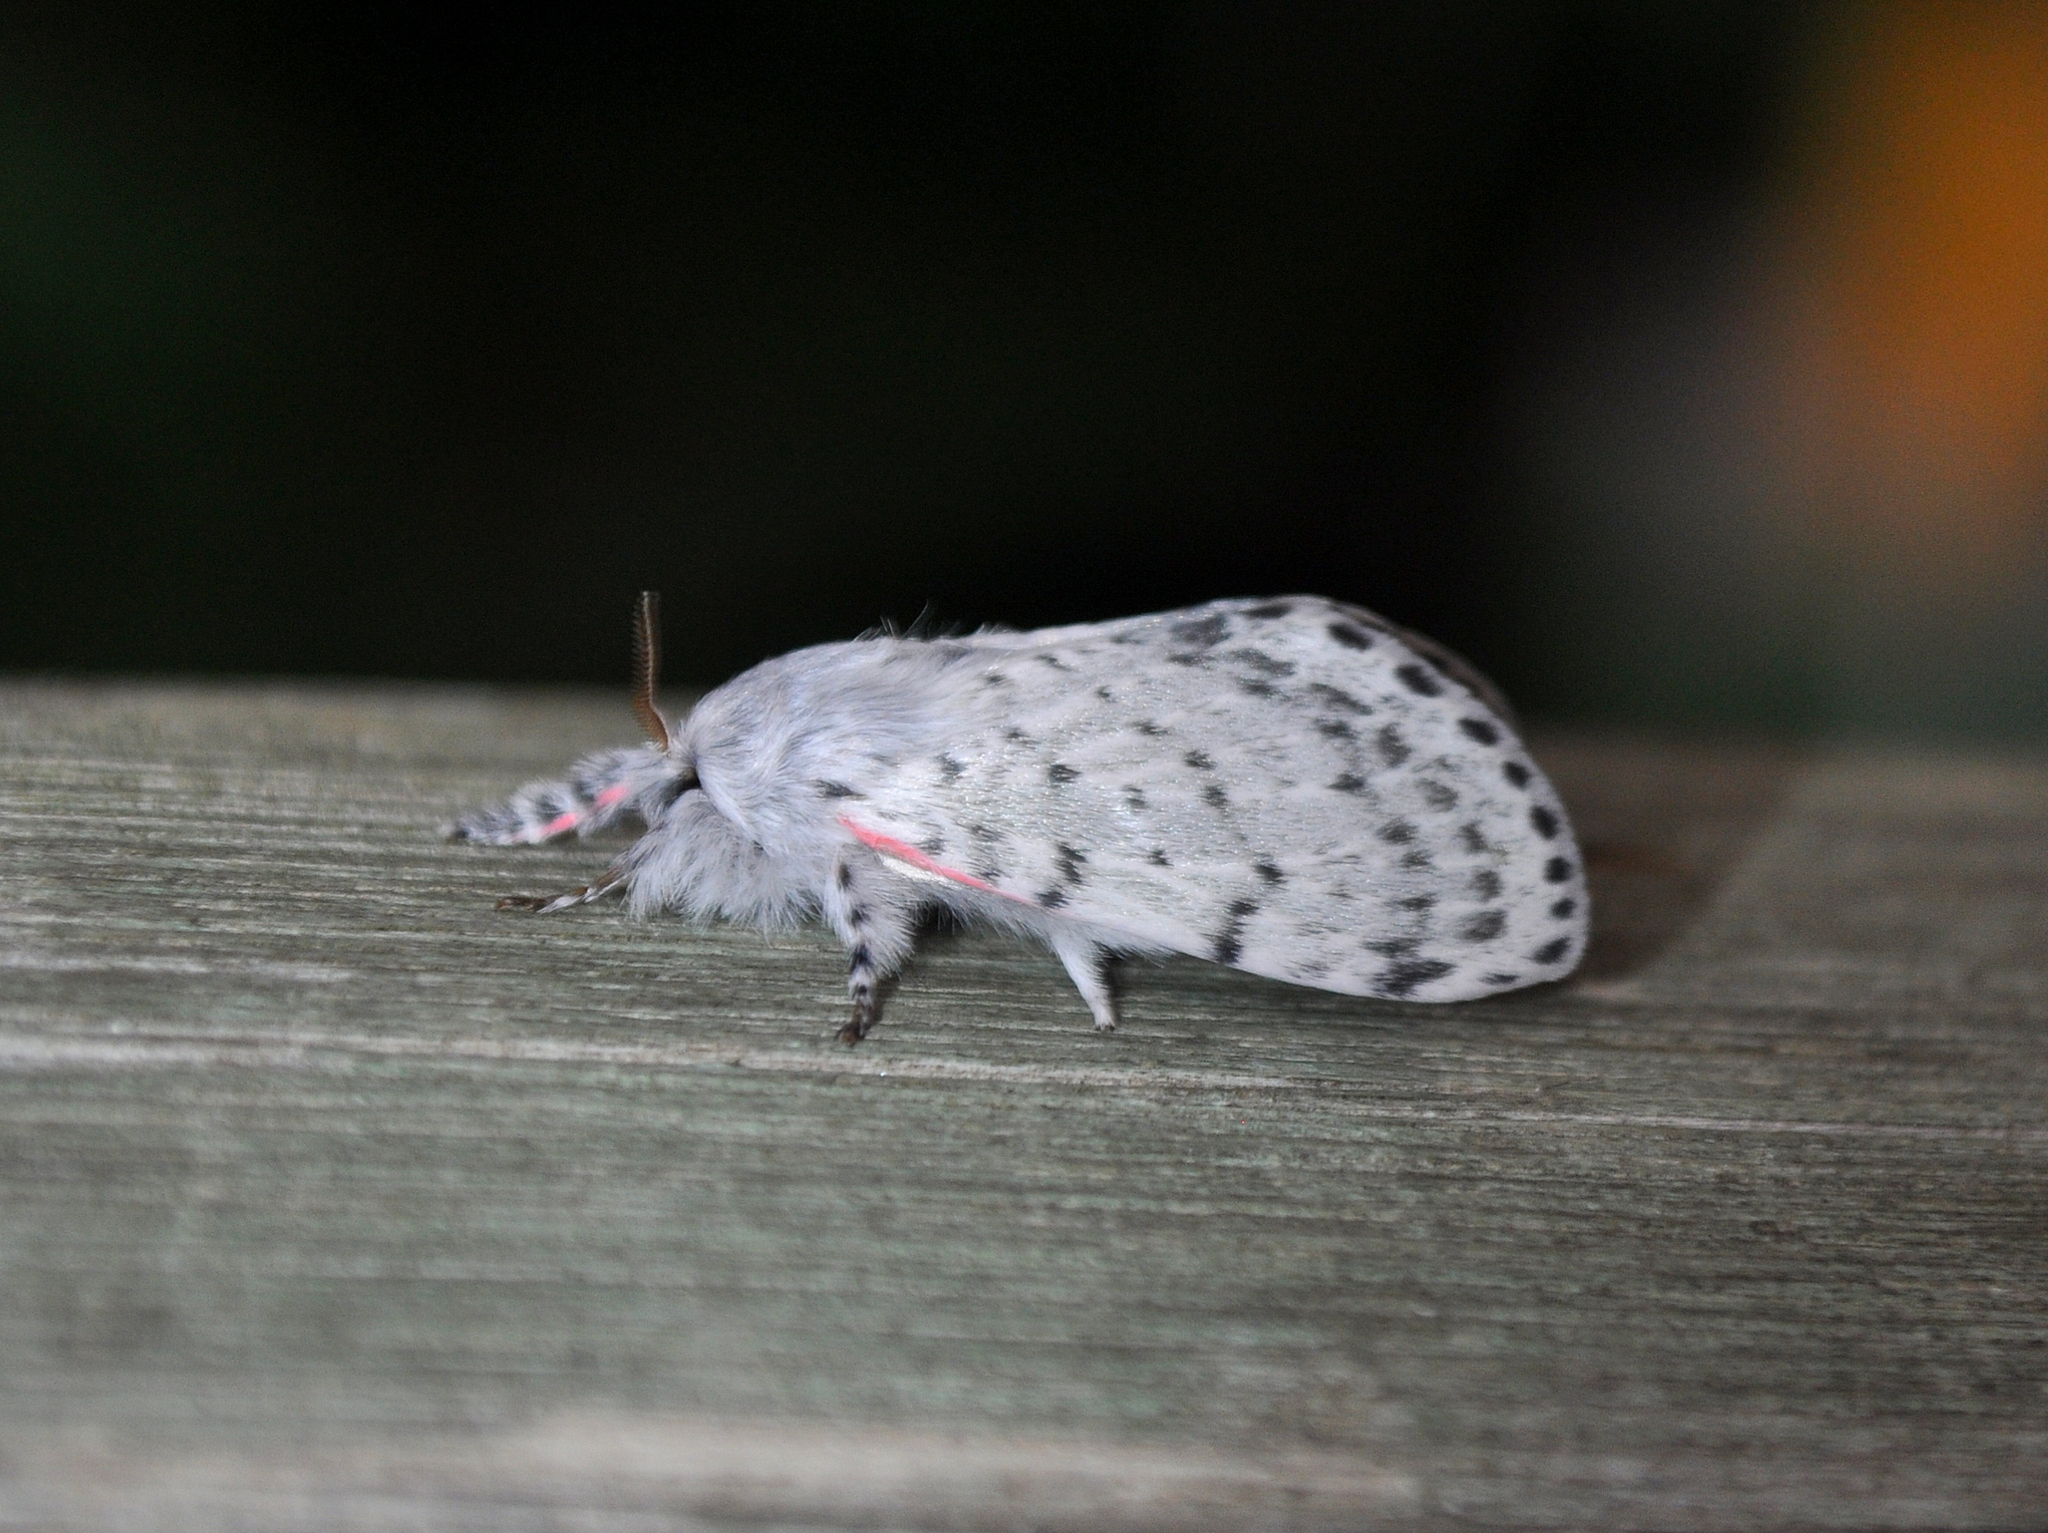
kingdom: Animalia
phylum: Arthropoda
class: Insecta
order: Lepidoptera
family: Lasiocampidae
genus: Artace
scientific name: Artace itatiaya
